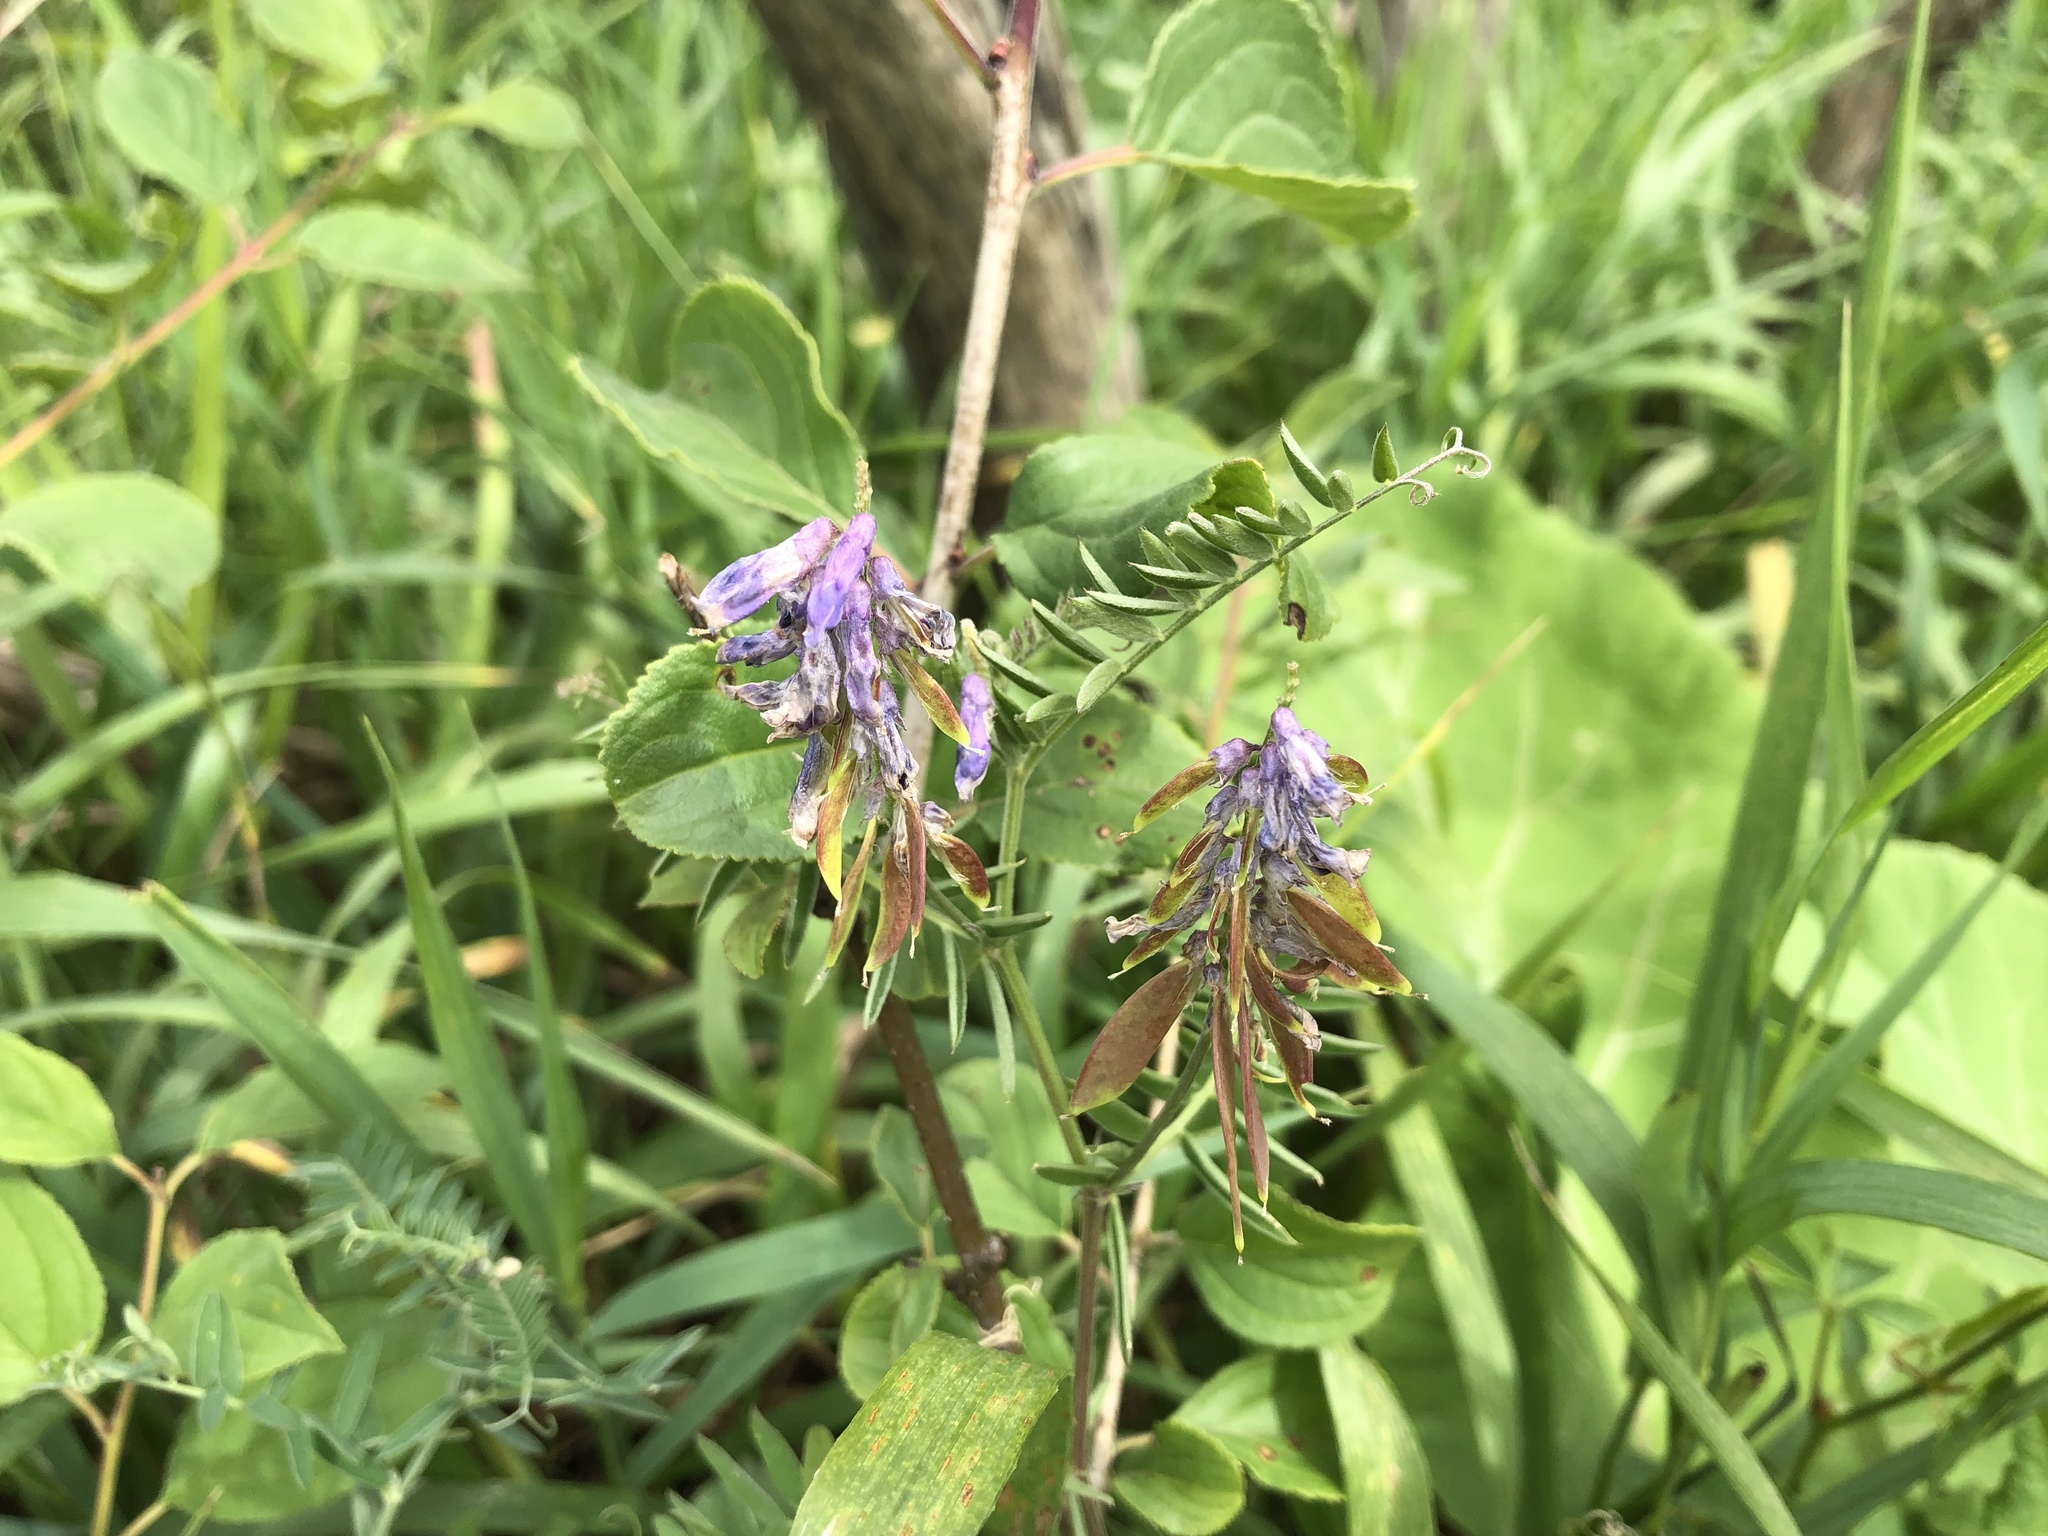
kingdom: Plantae
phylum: Tracheophyta
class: Magnoliopsida
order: Fabales
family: Fabaceae
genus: Vicia
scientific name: Vicia cracca
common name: Bird vetch
